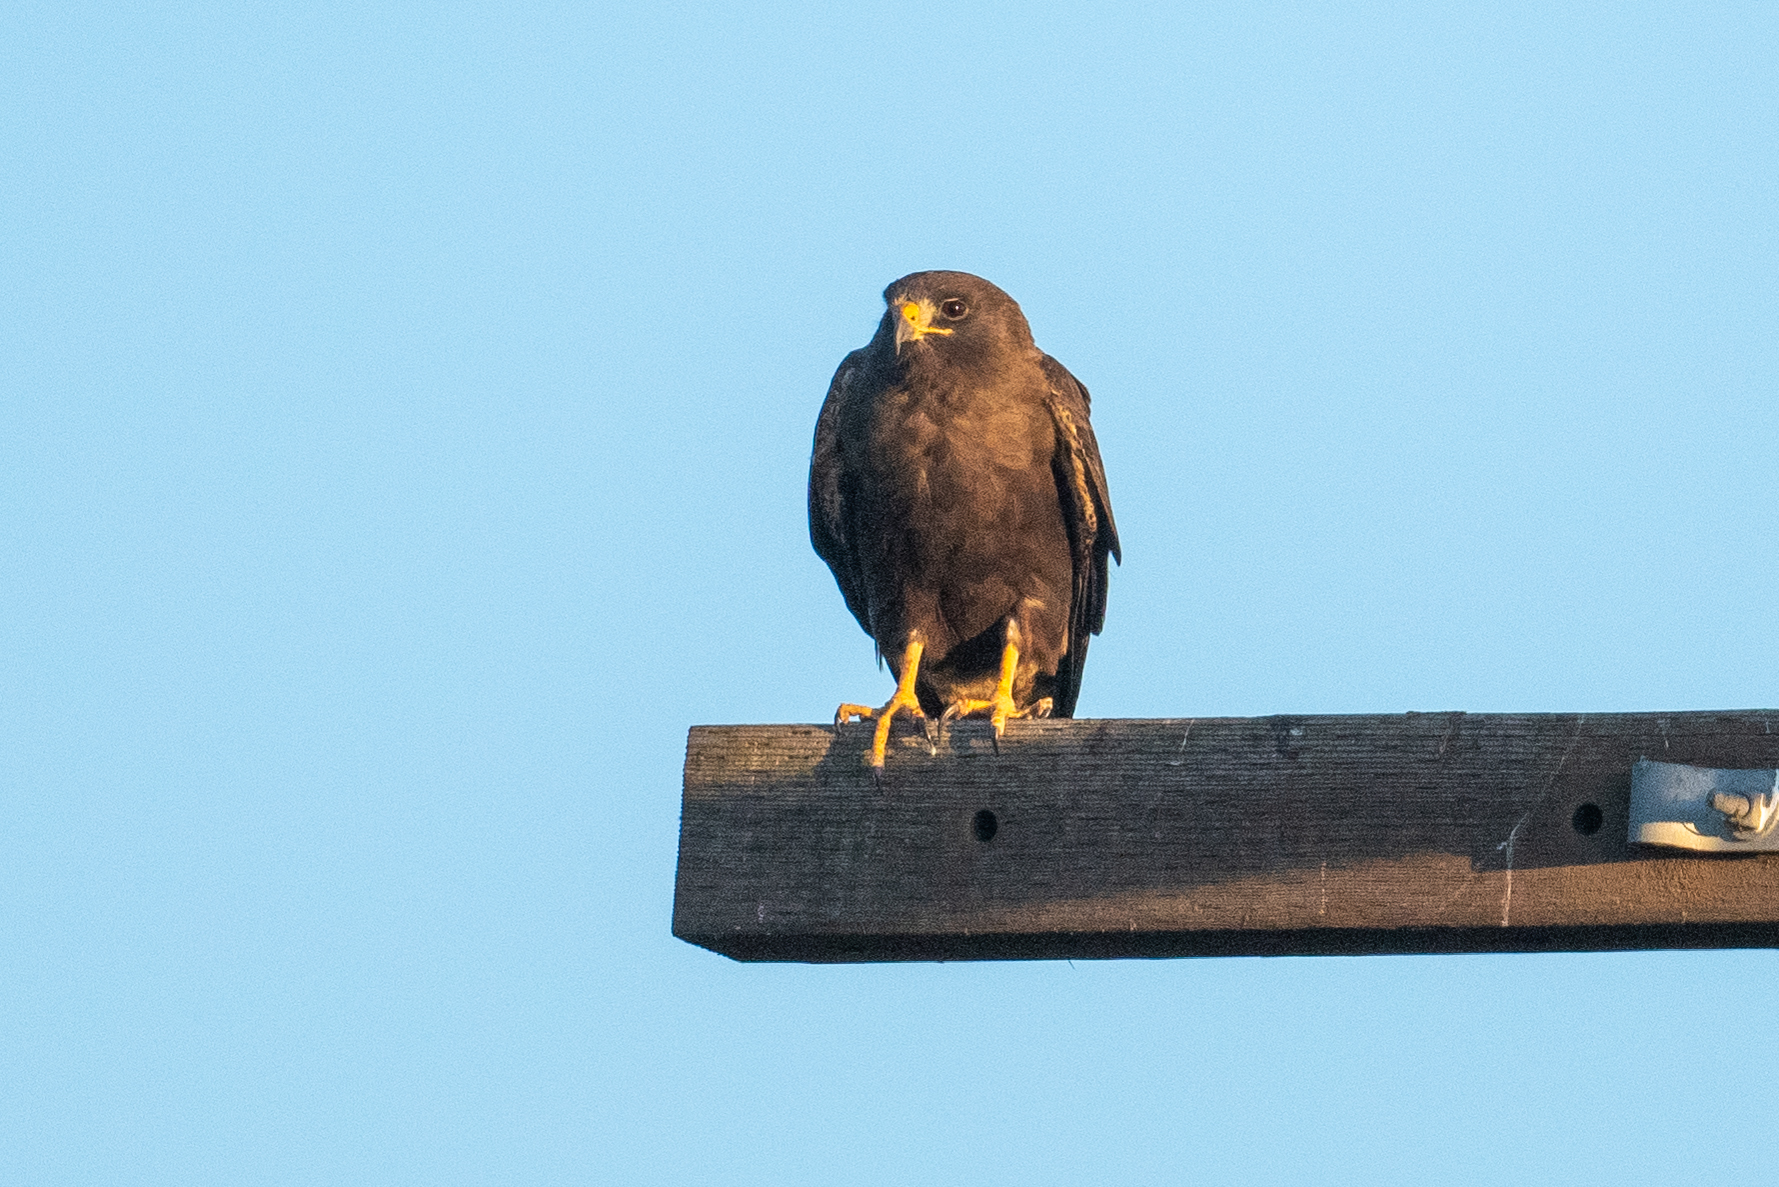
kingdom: Animalia
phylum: Chordata
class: Aves
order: Accipitriformes
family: Accipitridae
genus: Buteo
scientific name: Buteo swainsoni
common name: Swainson's hawk
